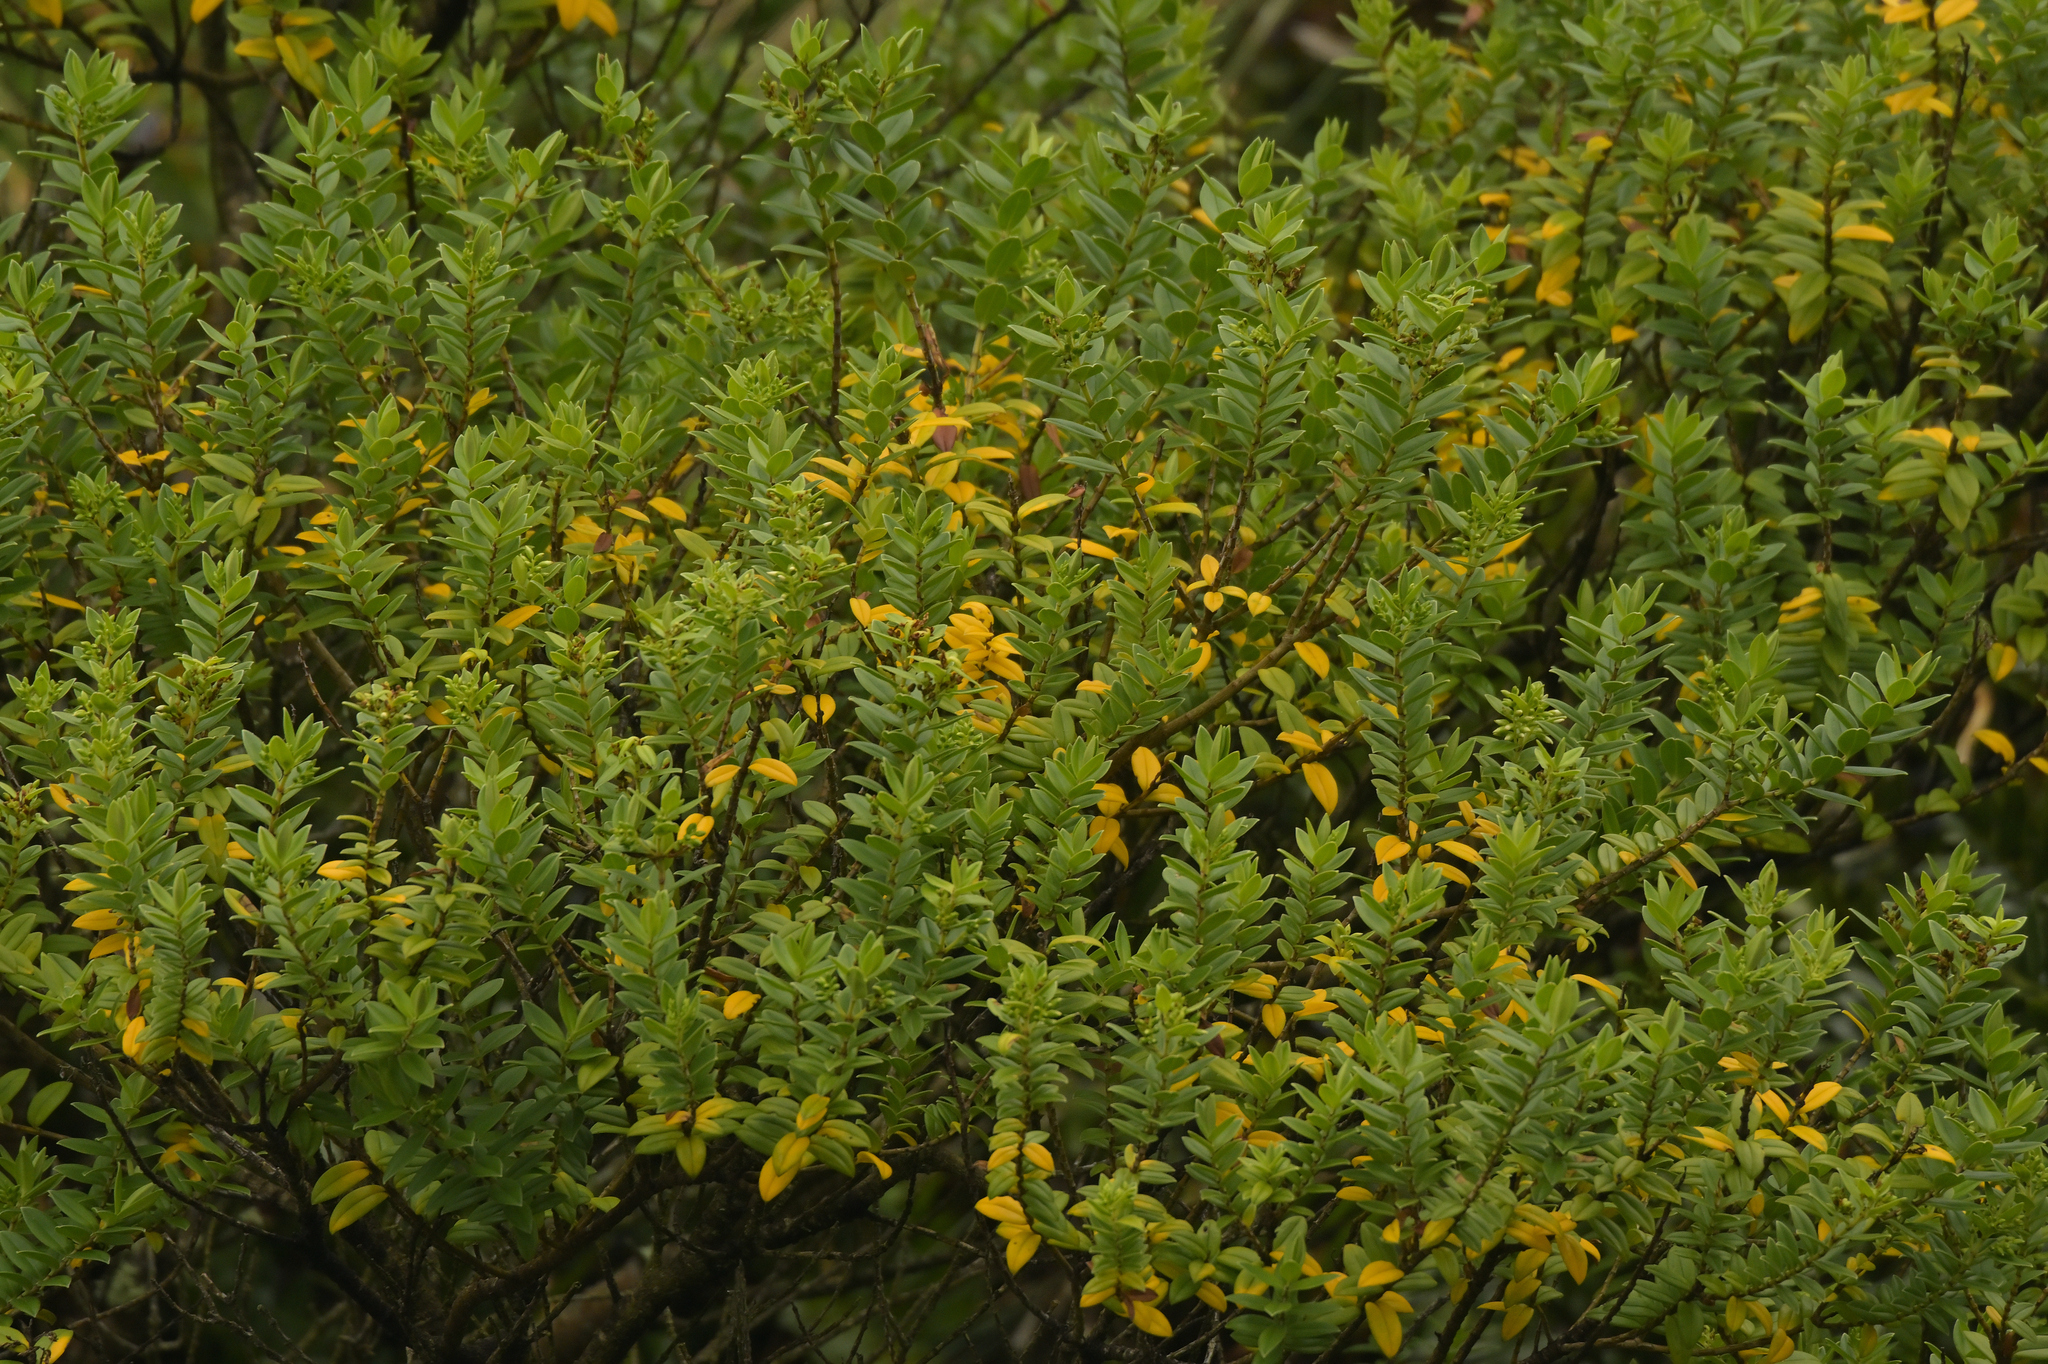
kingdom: Plantae
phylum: Tracheophyta
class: Magnoliopsida
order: Lamiales
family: Plantaginaceae
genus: Veronica
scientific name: Veronica elliptica
